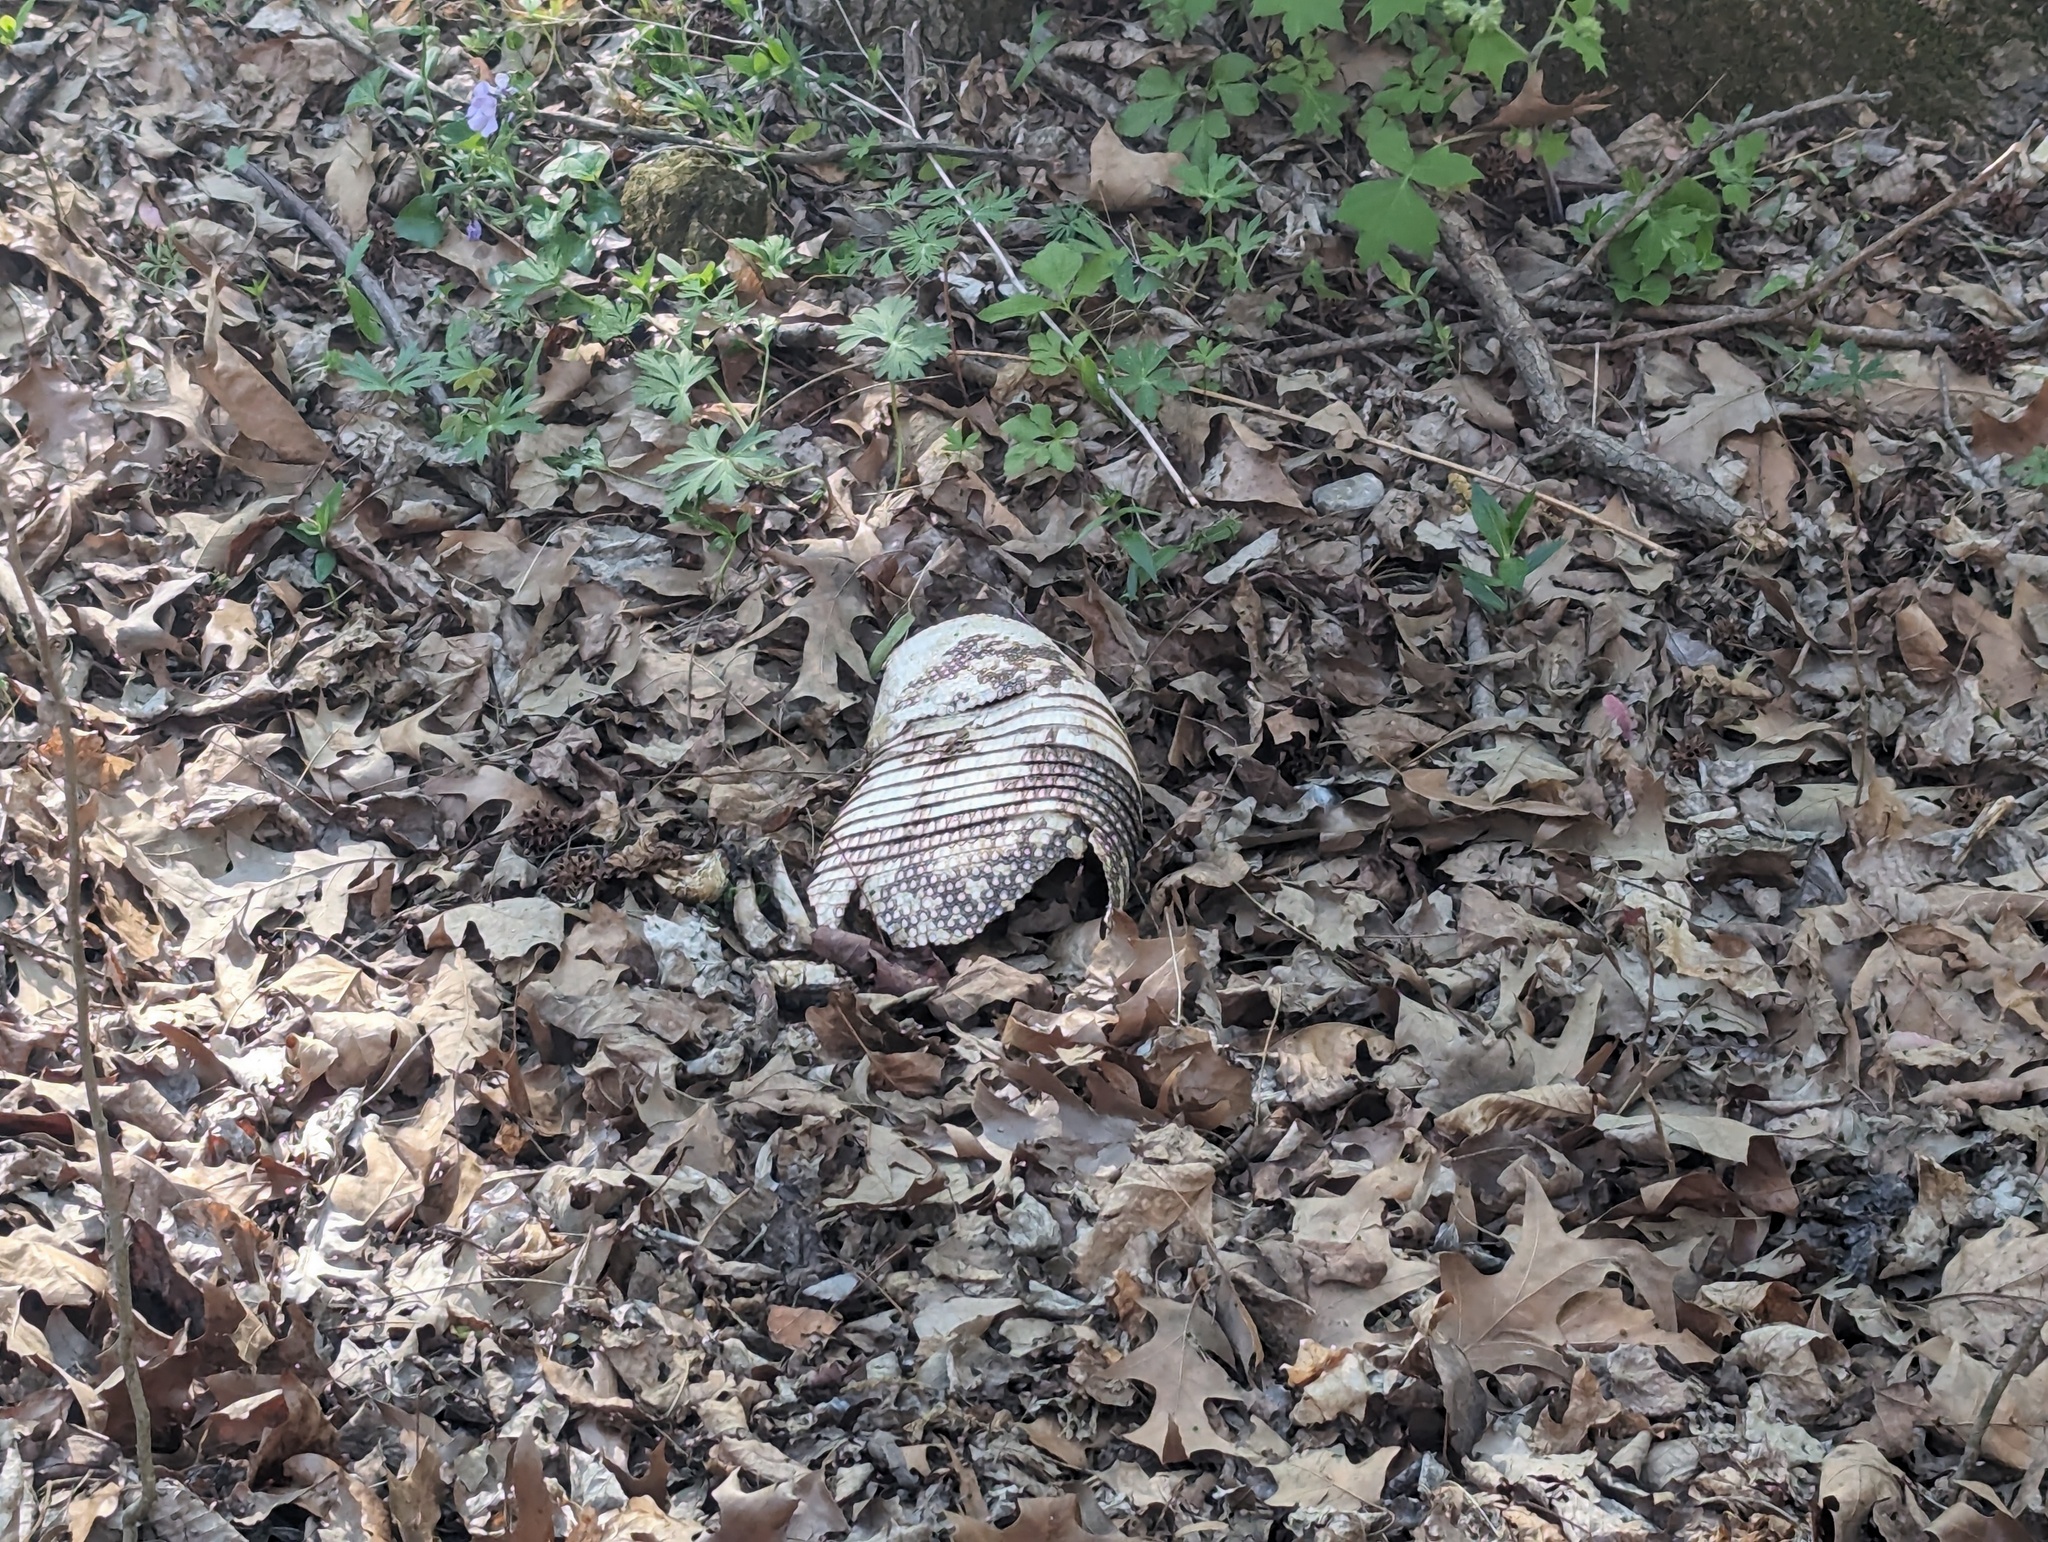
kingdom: Animalia
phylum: Chordata
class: Mammalia
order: Cingulata
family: Dasypodidae
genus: Dasypus
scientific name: Dasypus novemcinctus
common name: Nine-banded armadillo
